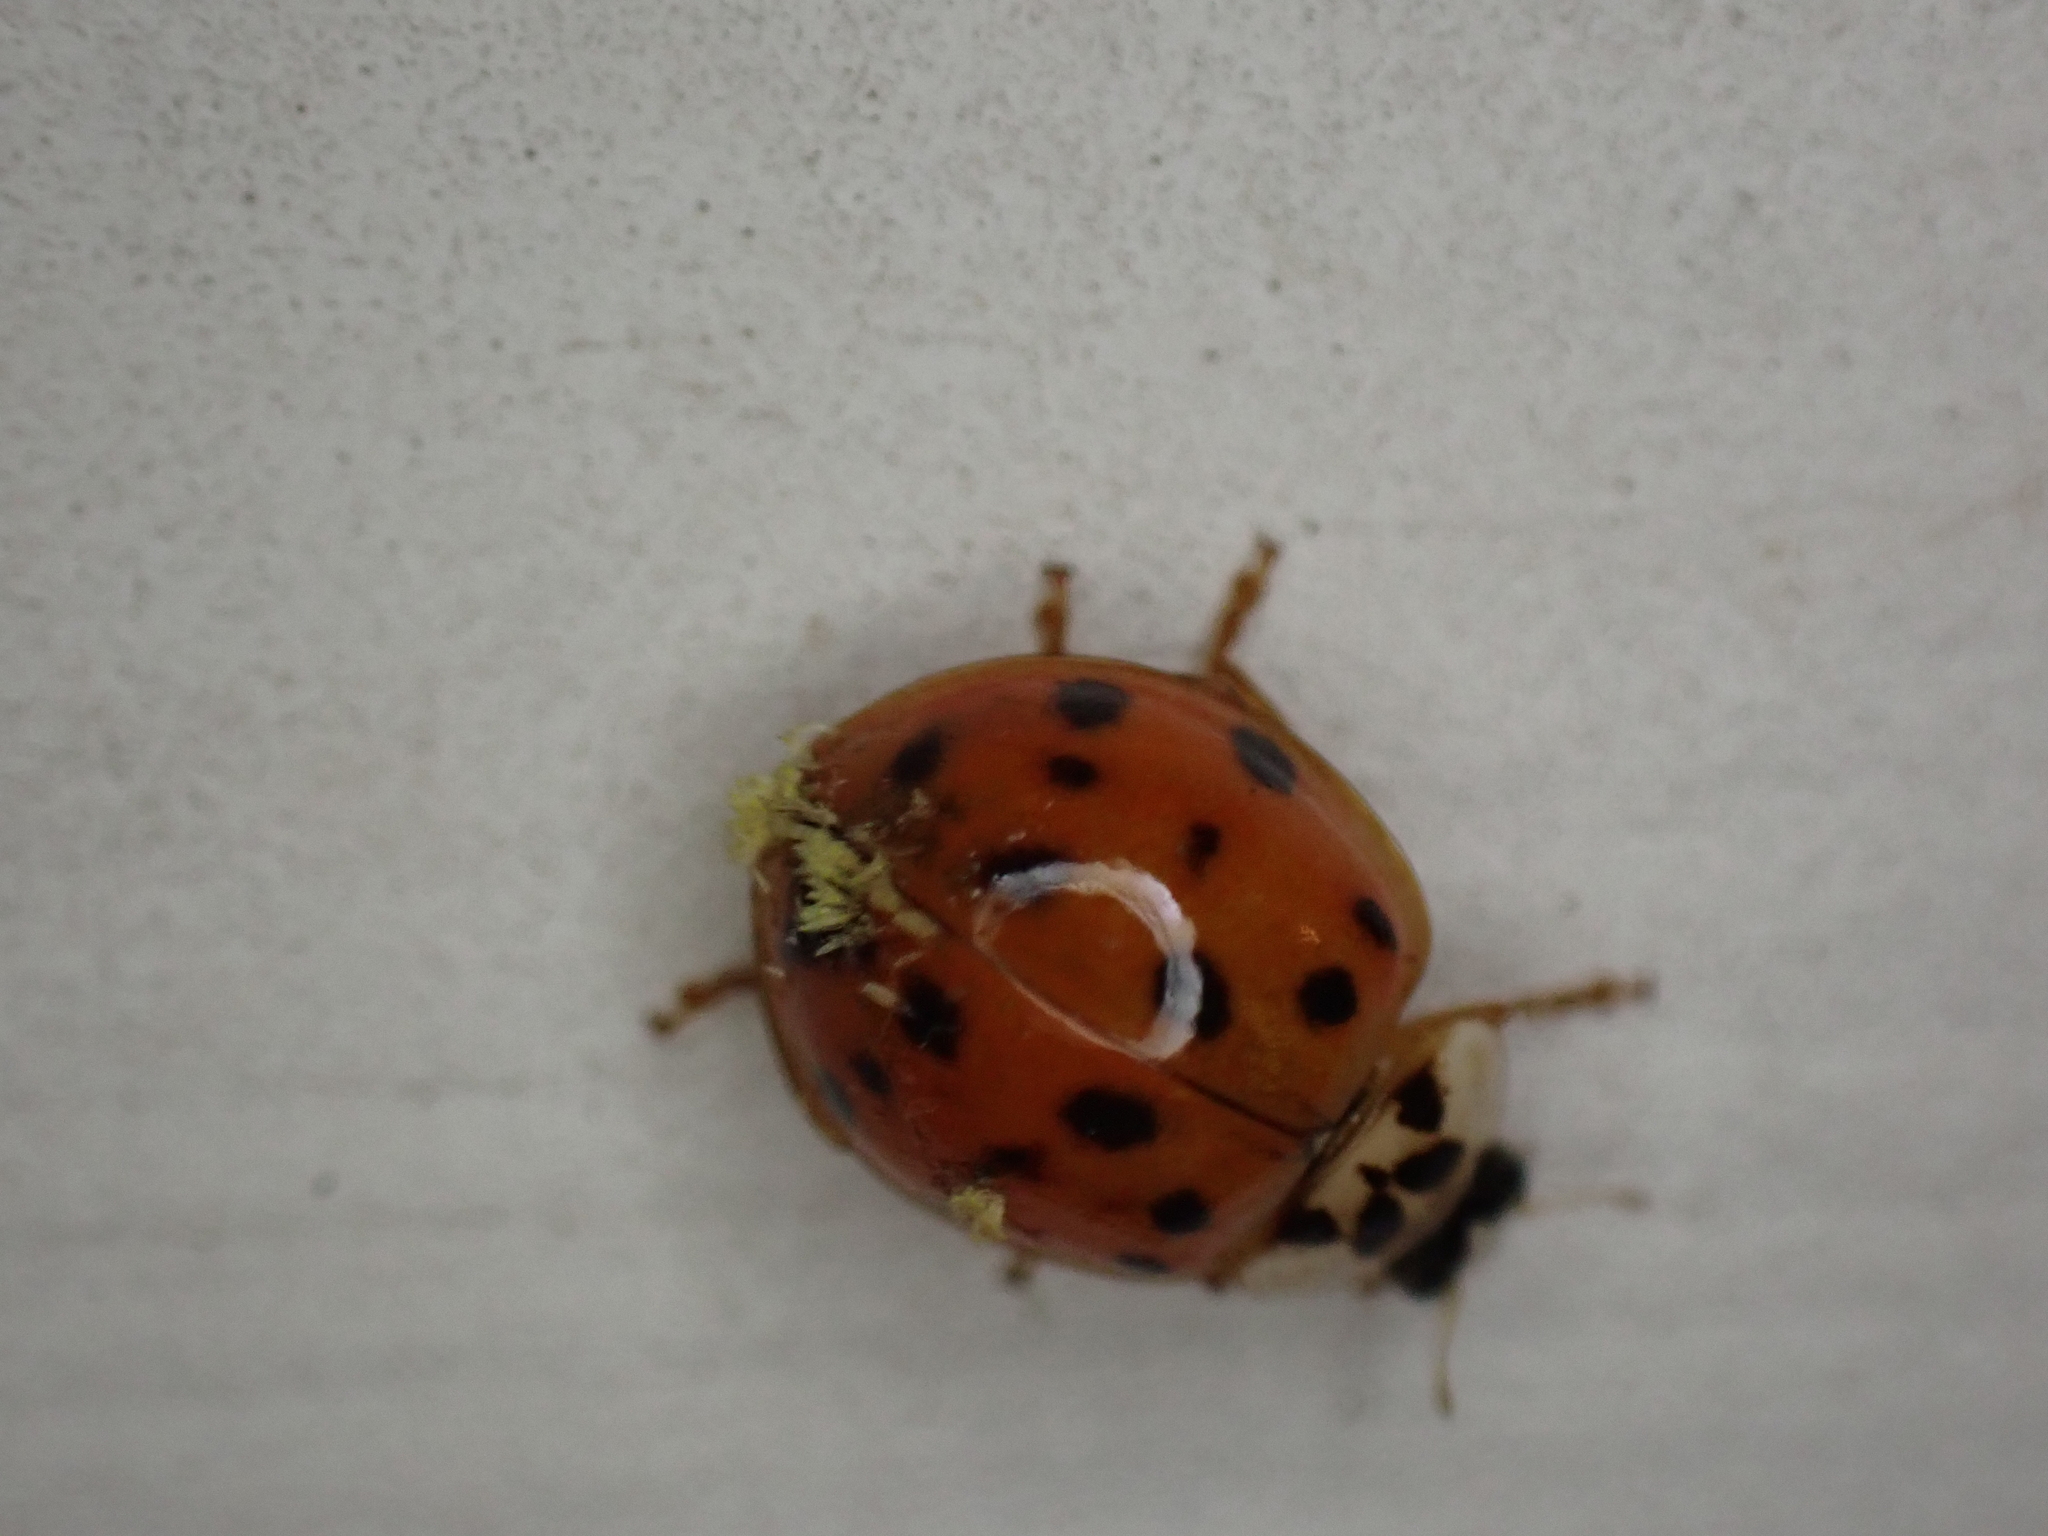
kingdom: Fungi
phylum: Ascomycota
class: Laboulbeniomycetes
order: Laboulbeniales
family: Laboulbeniaceae
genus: Hesperomyces
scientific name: Hesperomyces harmoniae
